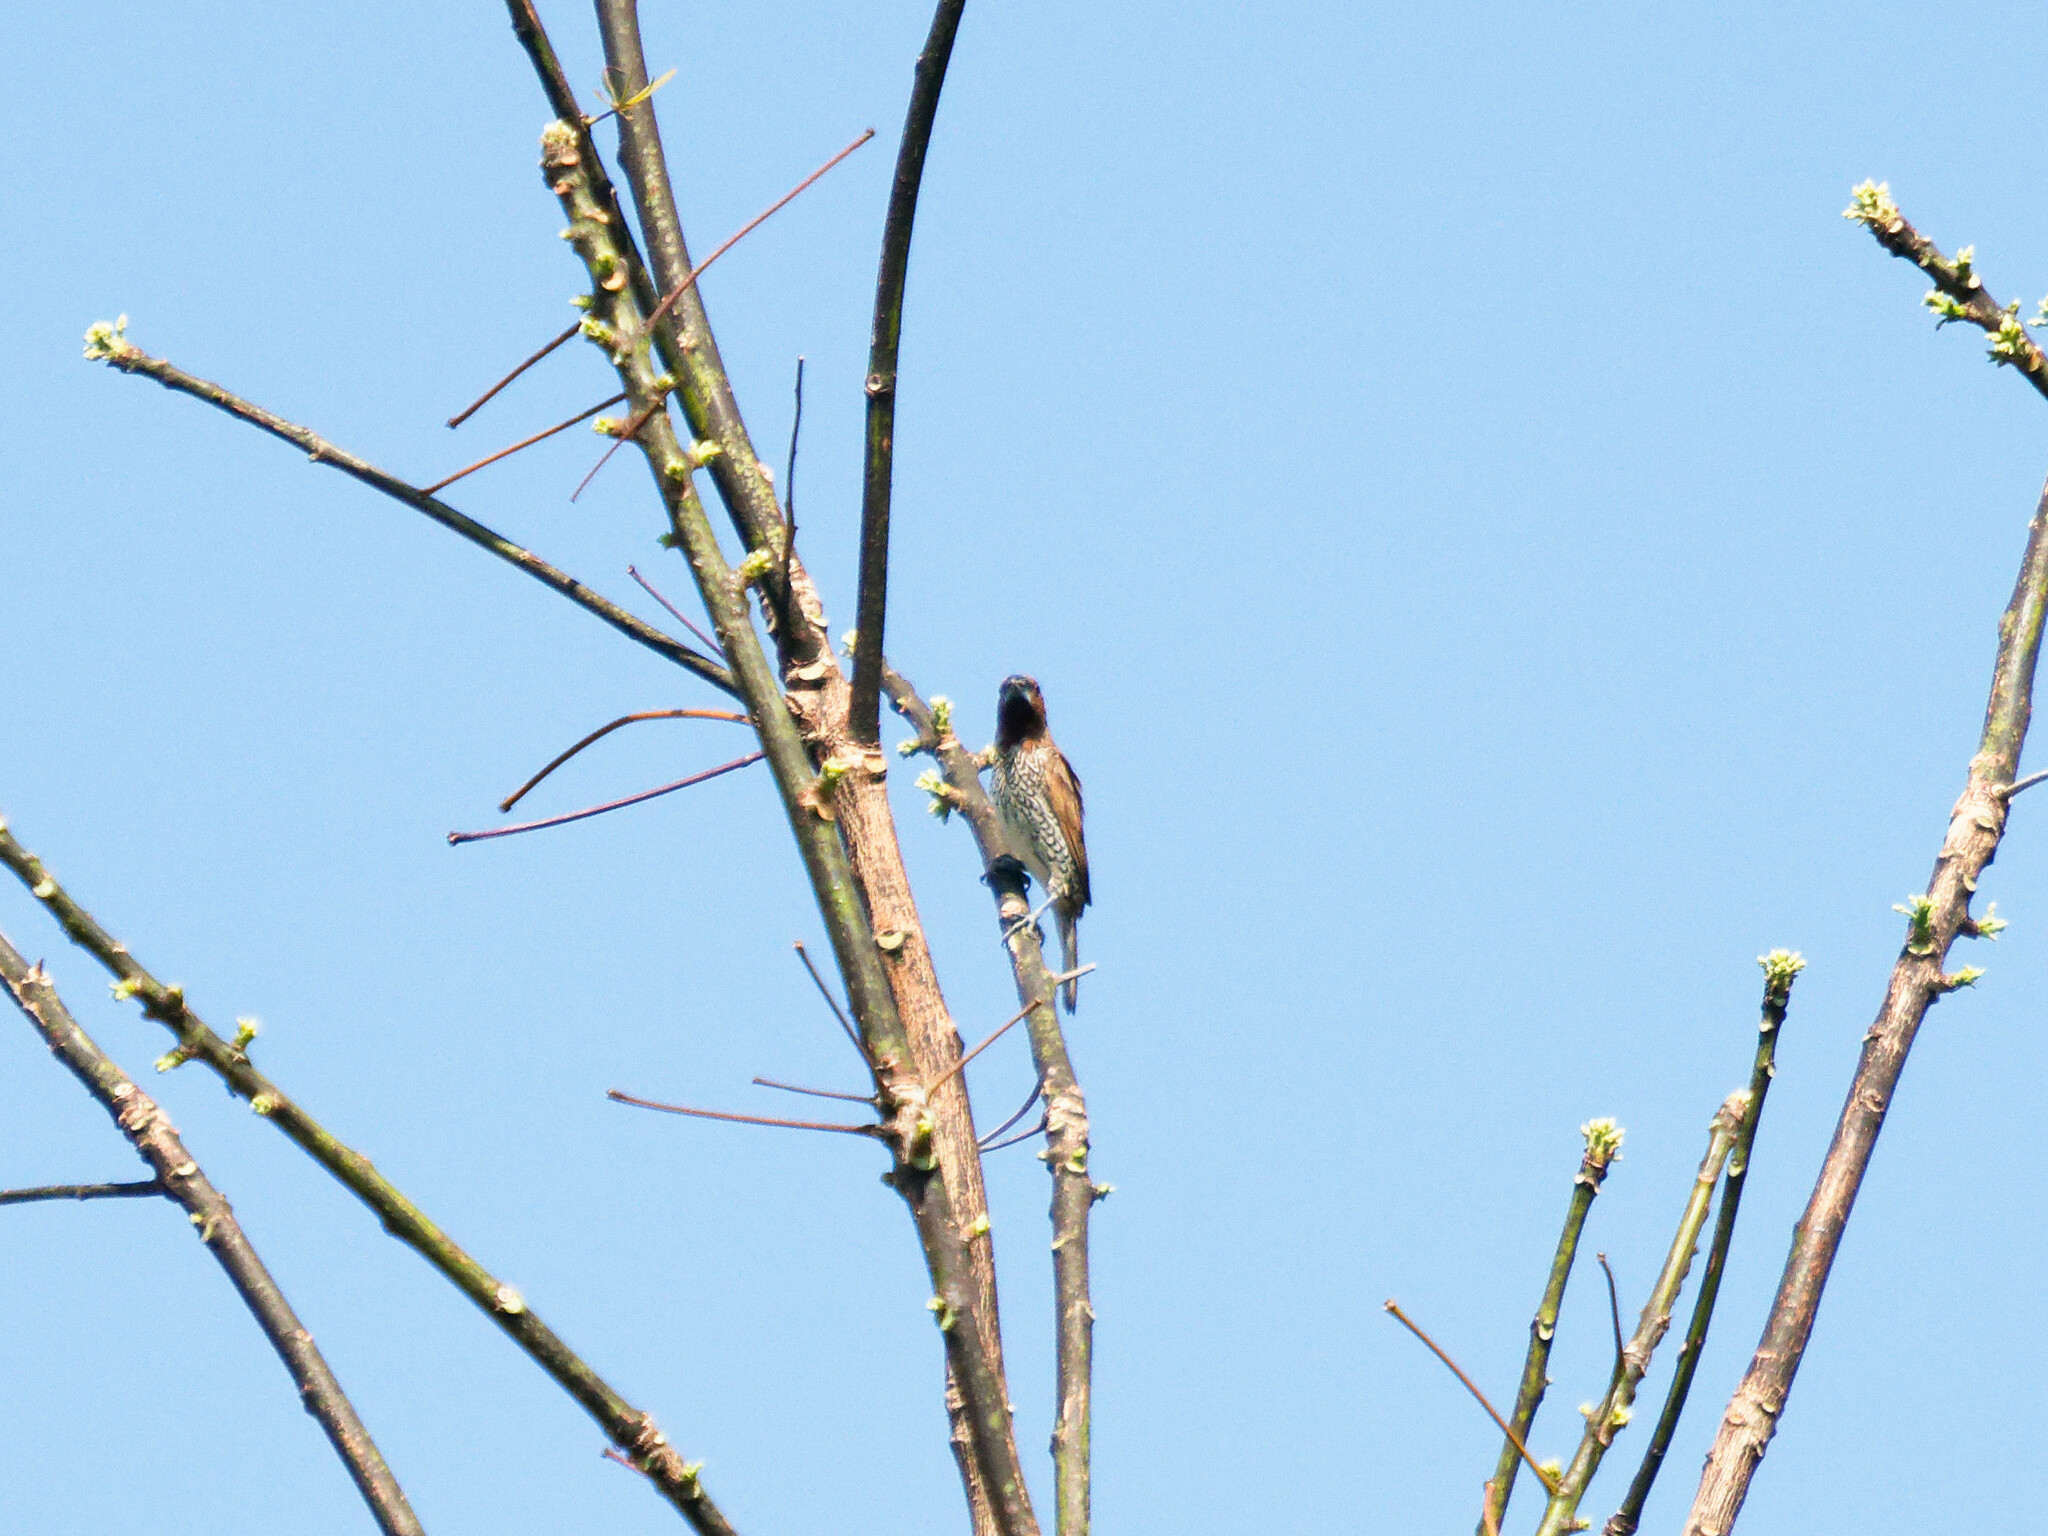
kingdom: Animalia
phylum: Chordata
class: Aves
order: Passeriformes
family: Estrildidae
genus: Lonchura
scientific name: Lonchura punctulata
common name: Scaly-breasted munia
